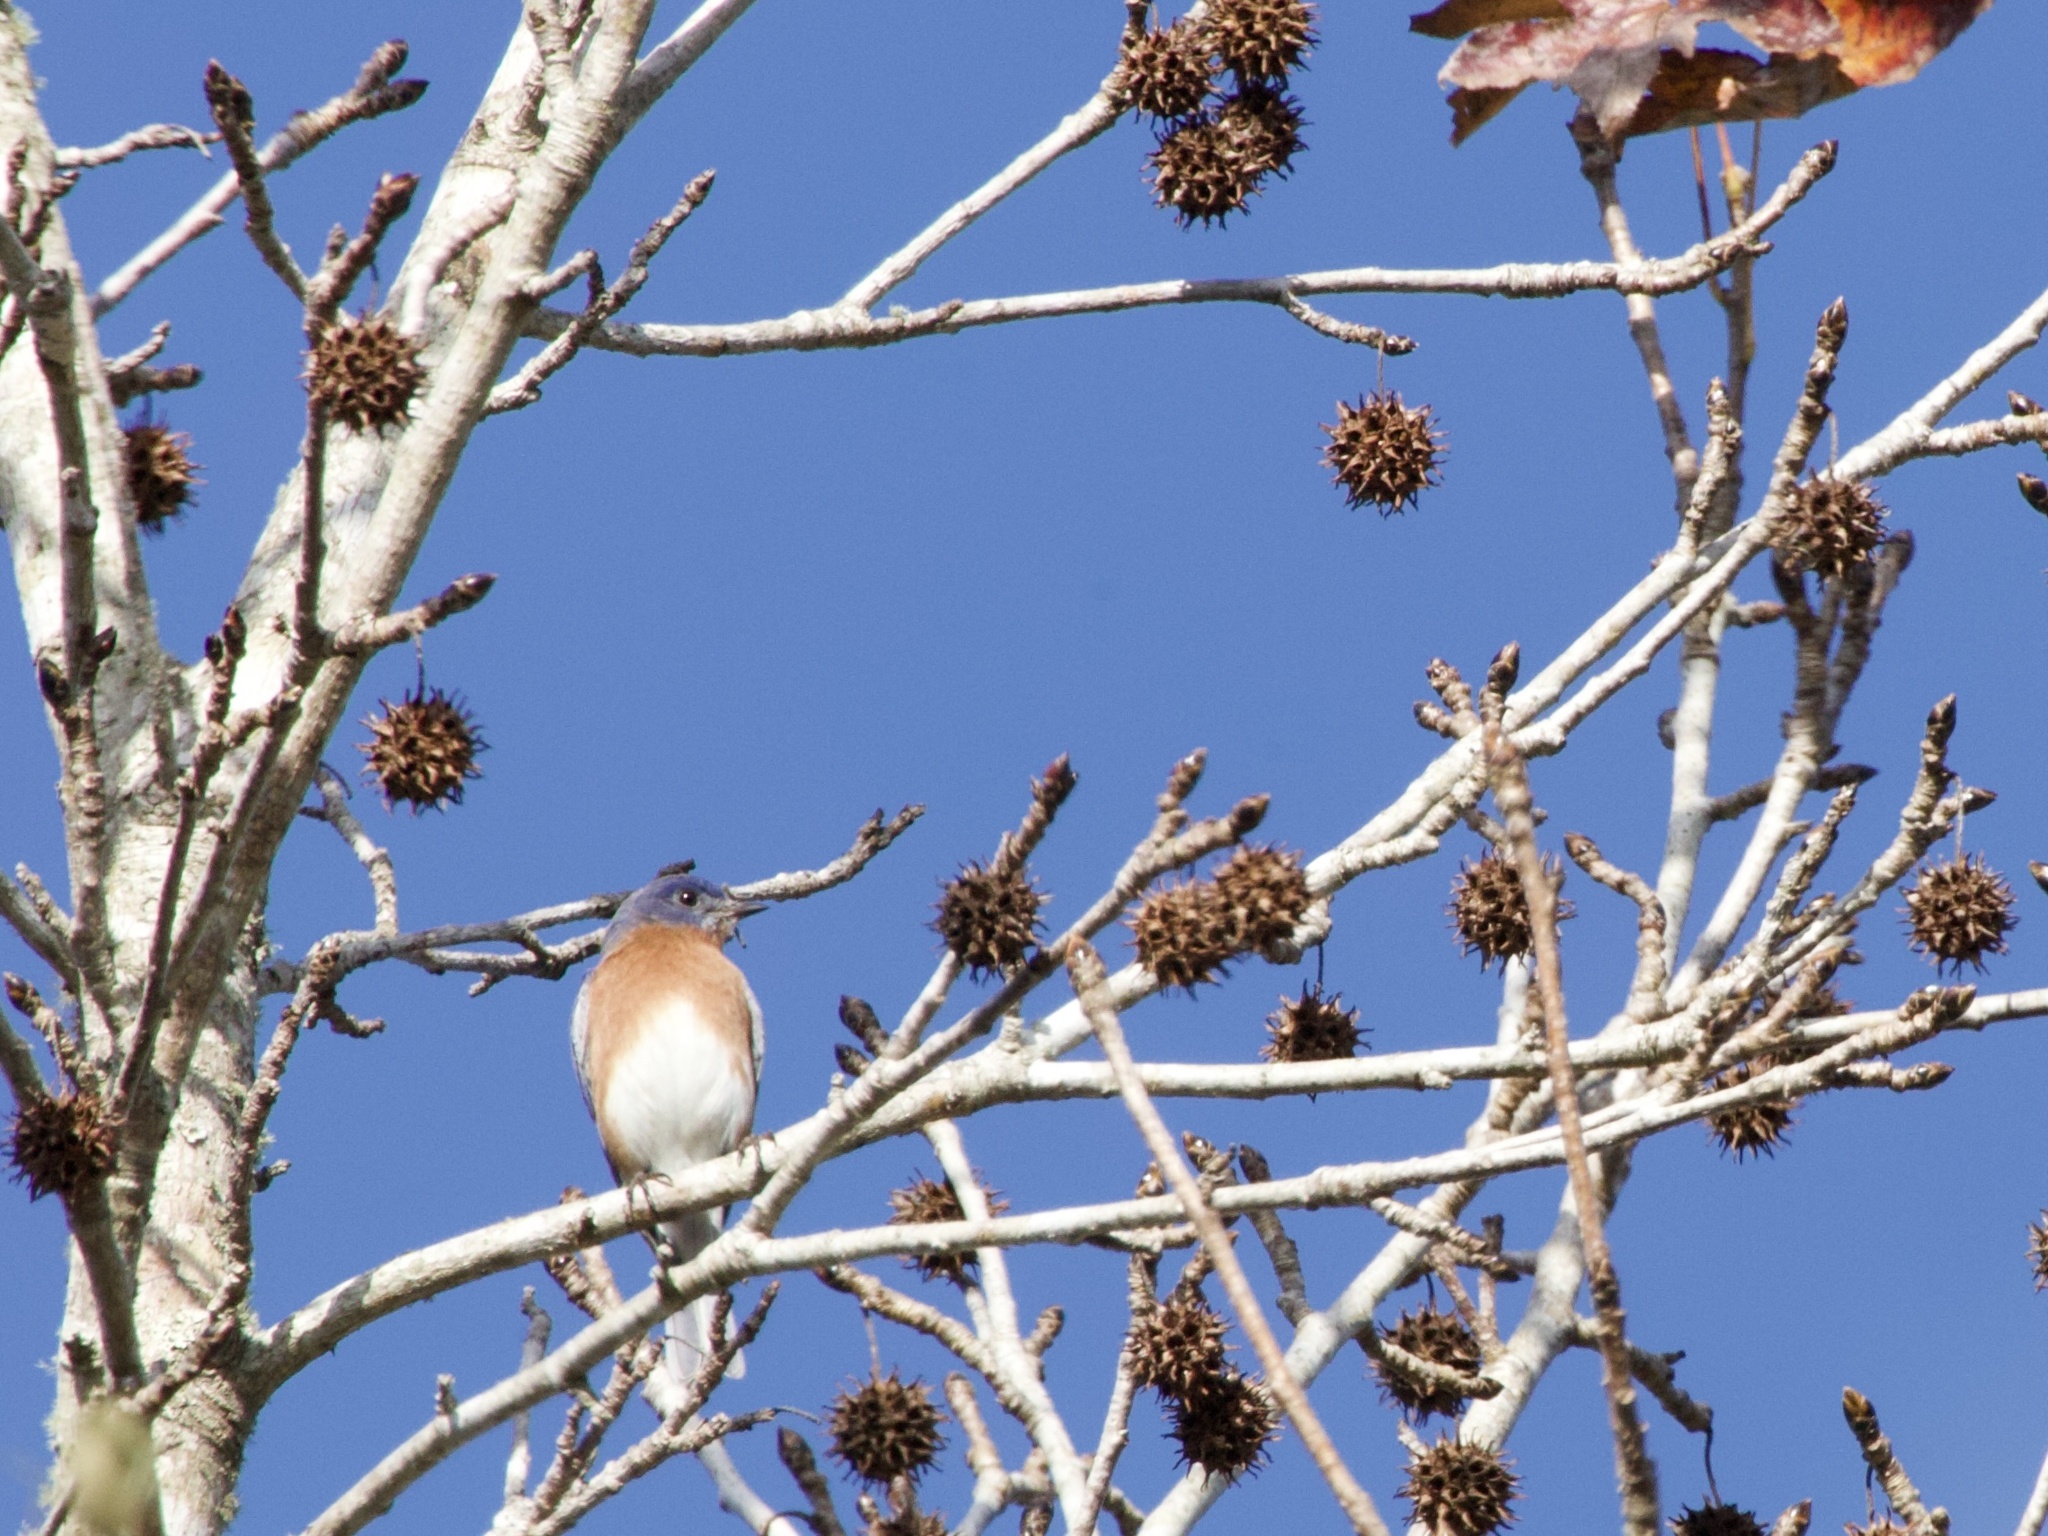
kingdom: Animalia
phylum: Chordata
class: Aves
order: Passeriformes
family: Turdidae
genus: Sialia
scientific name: Sialia sialis
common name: Eastern bluebird
